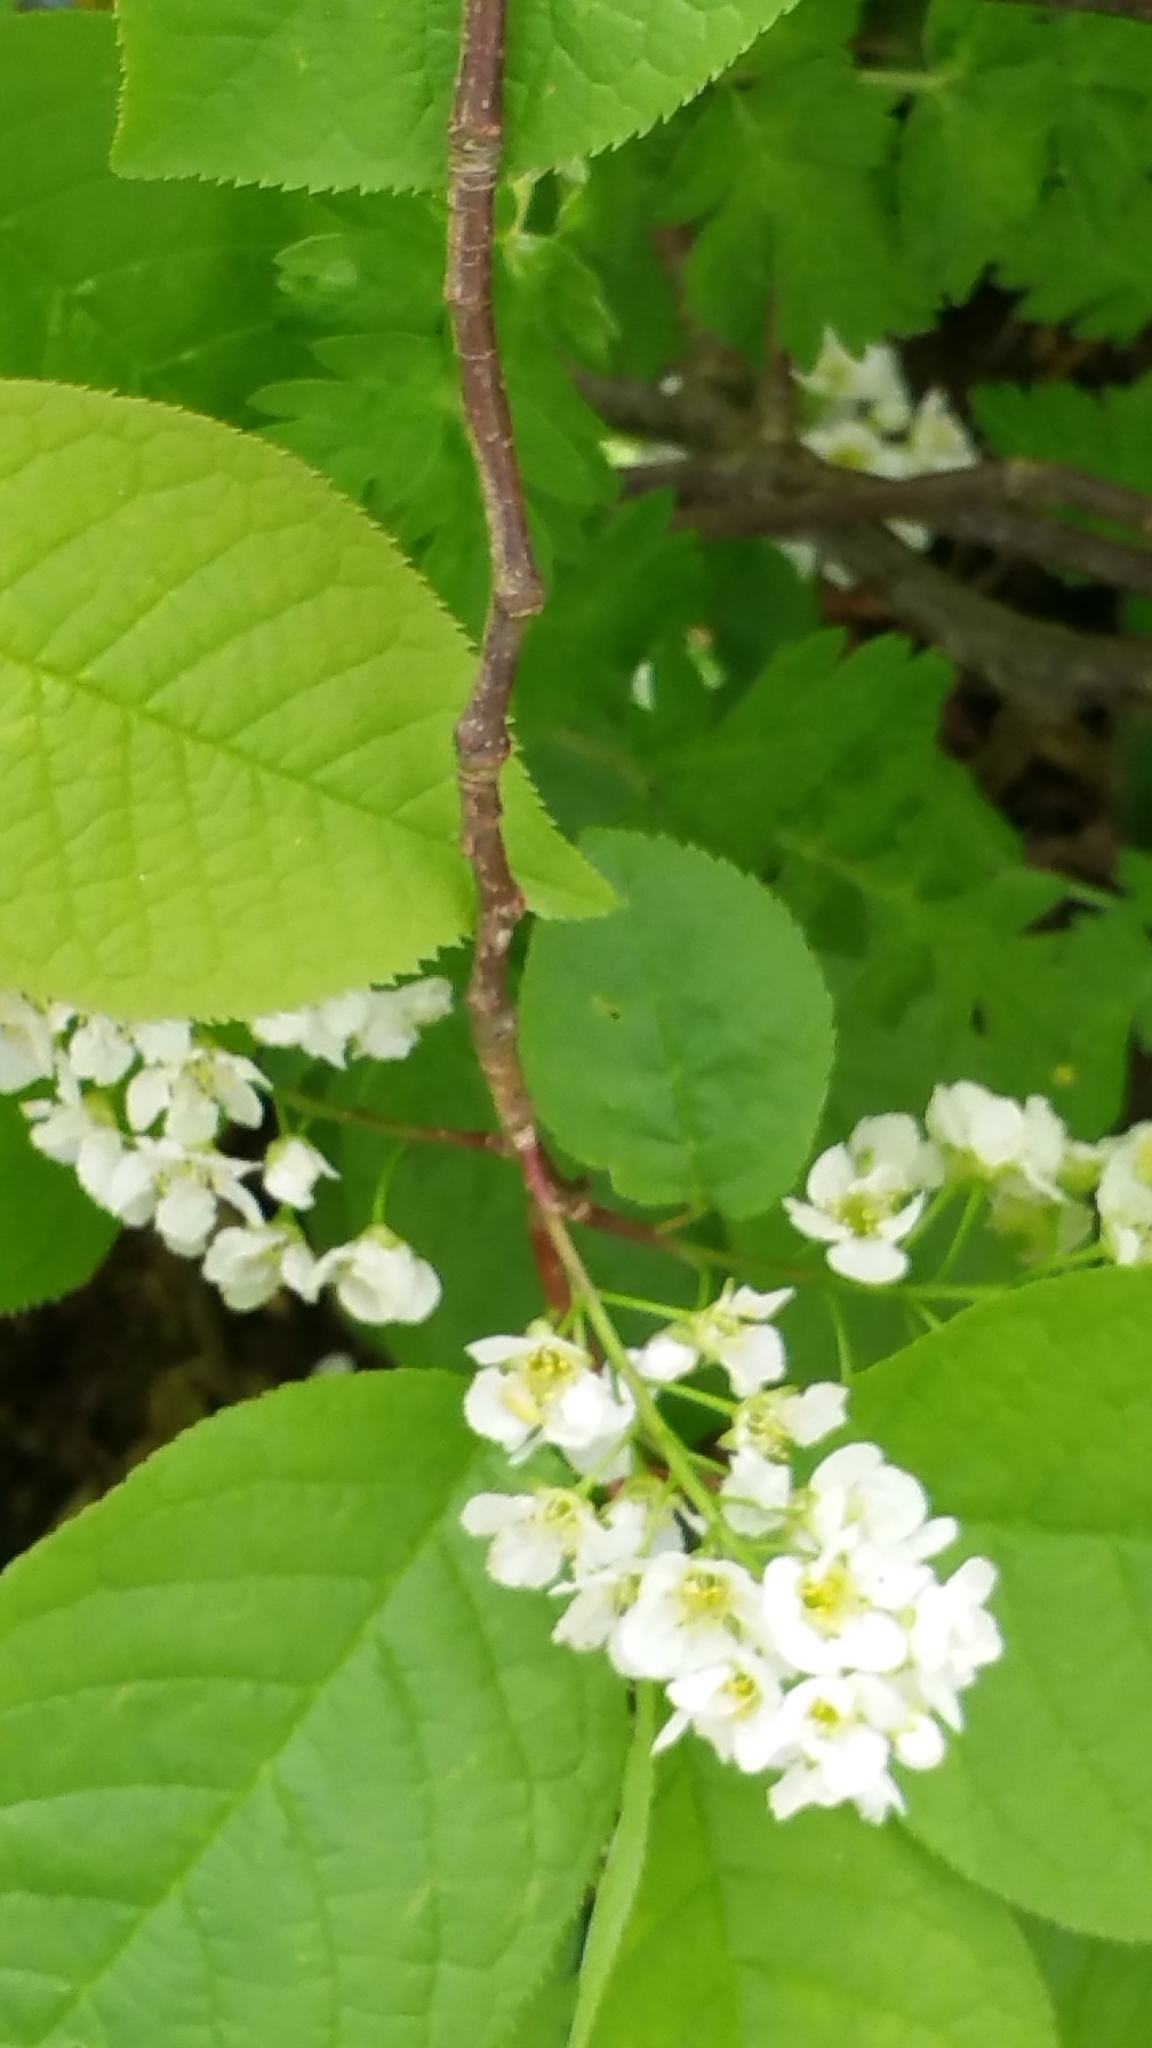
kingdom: Plantae
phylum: Tracheophyta
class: Magnoliopsida
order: Rosales
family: Rosaceae
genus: Prunus
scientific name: Prunus padus
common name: Bird cherry
